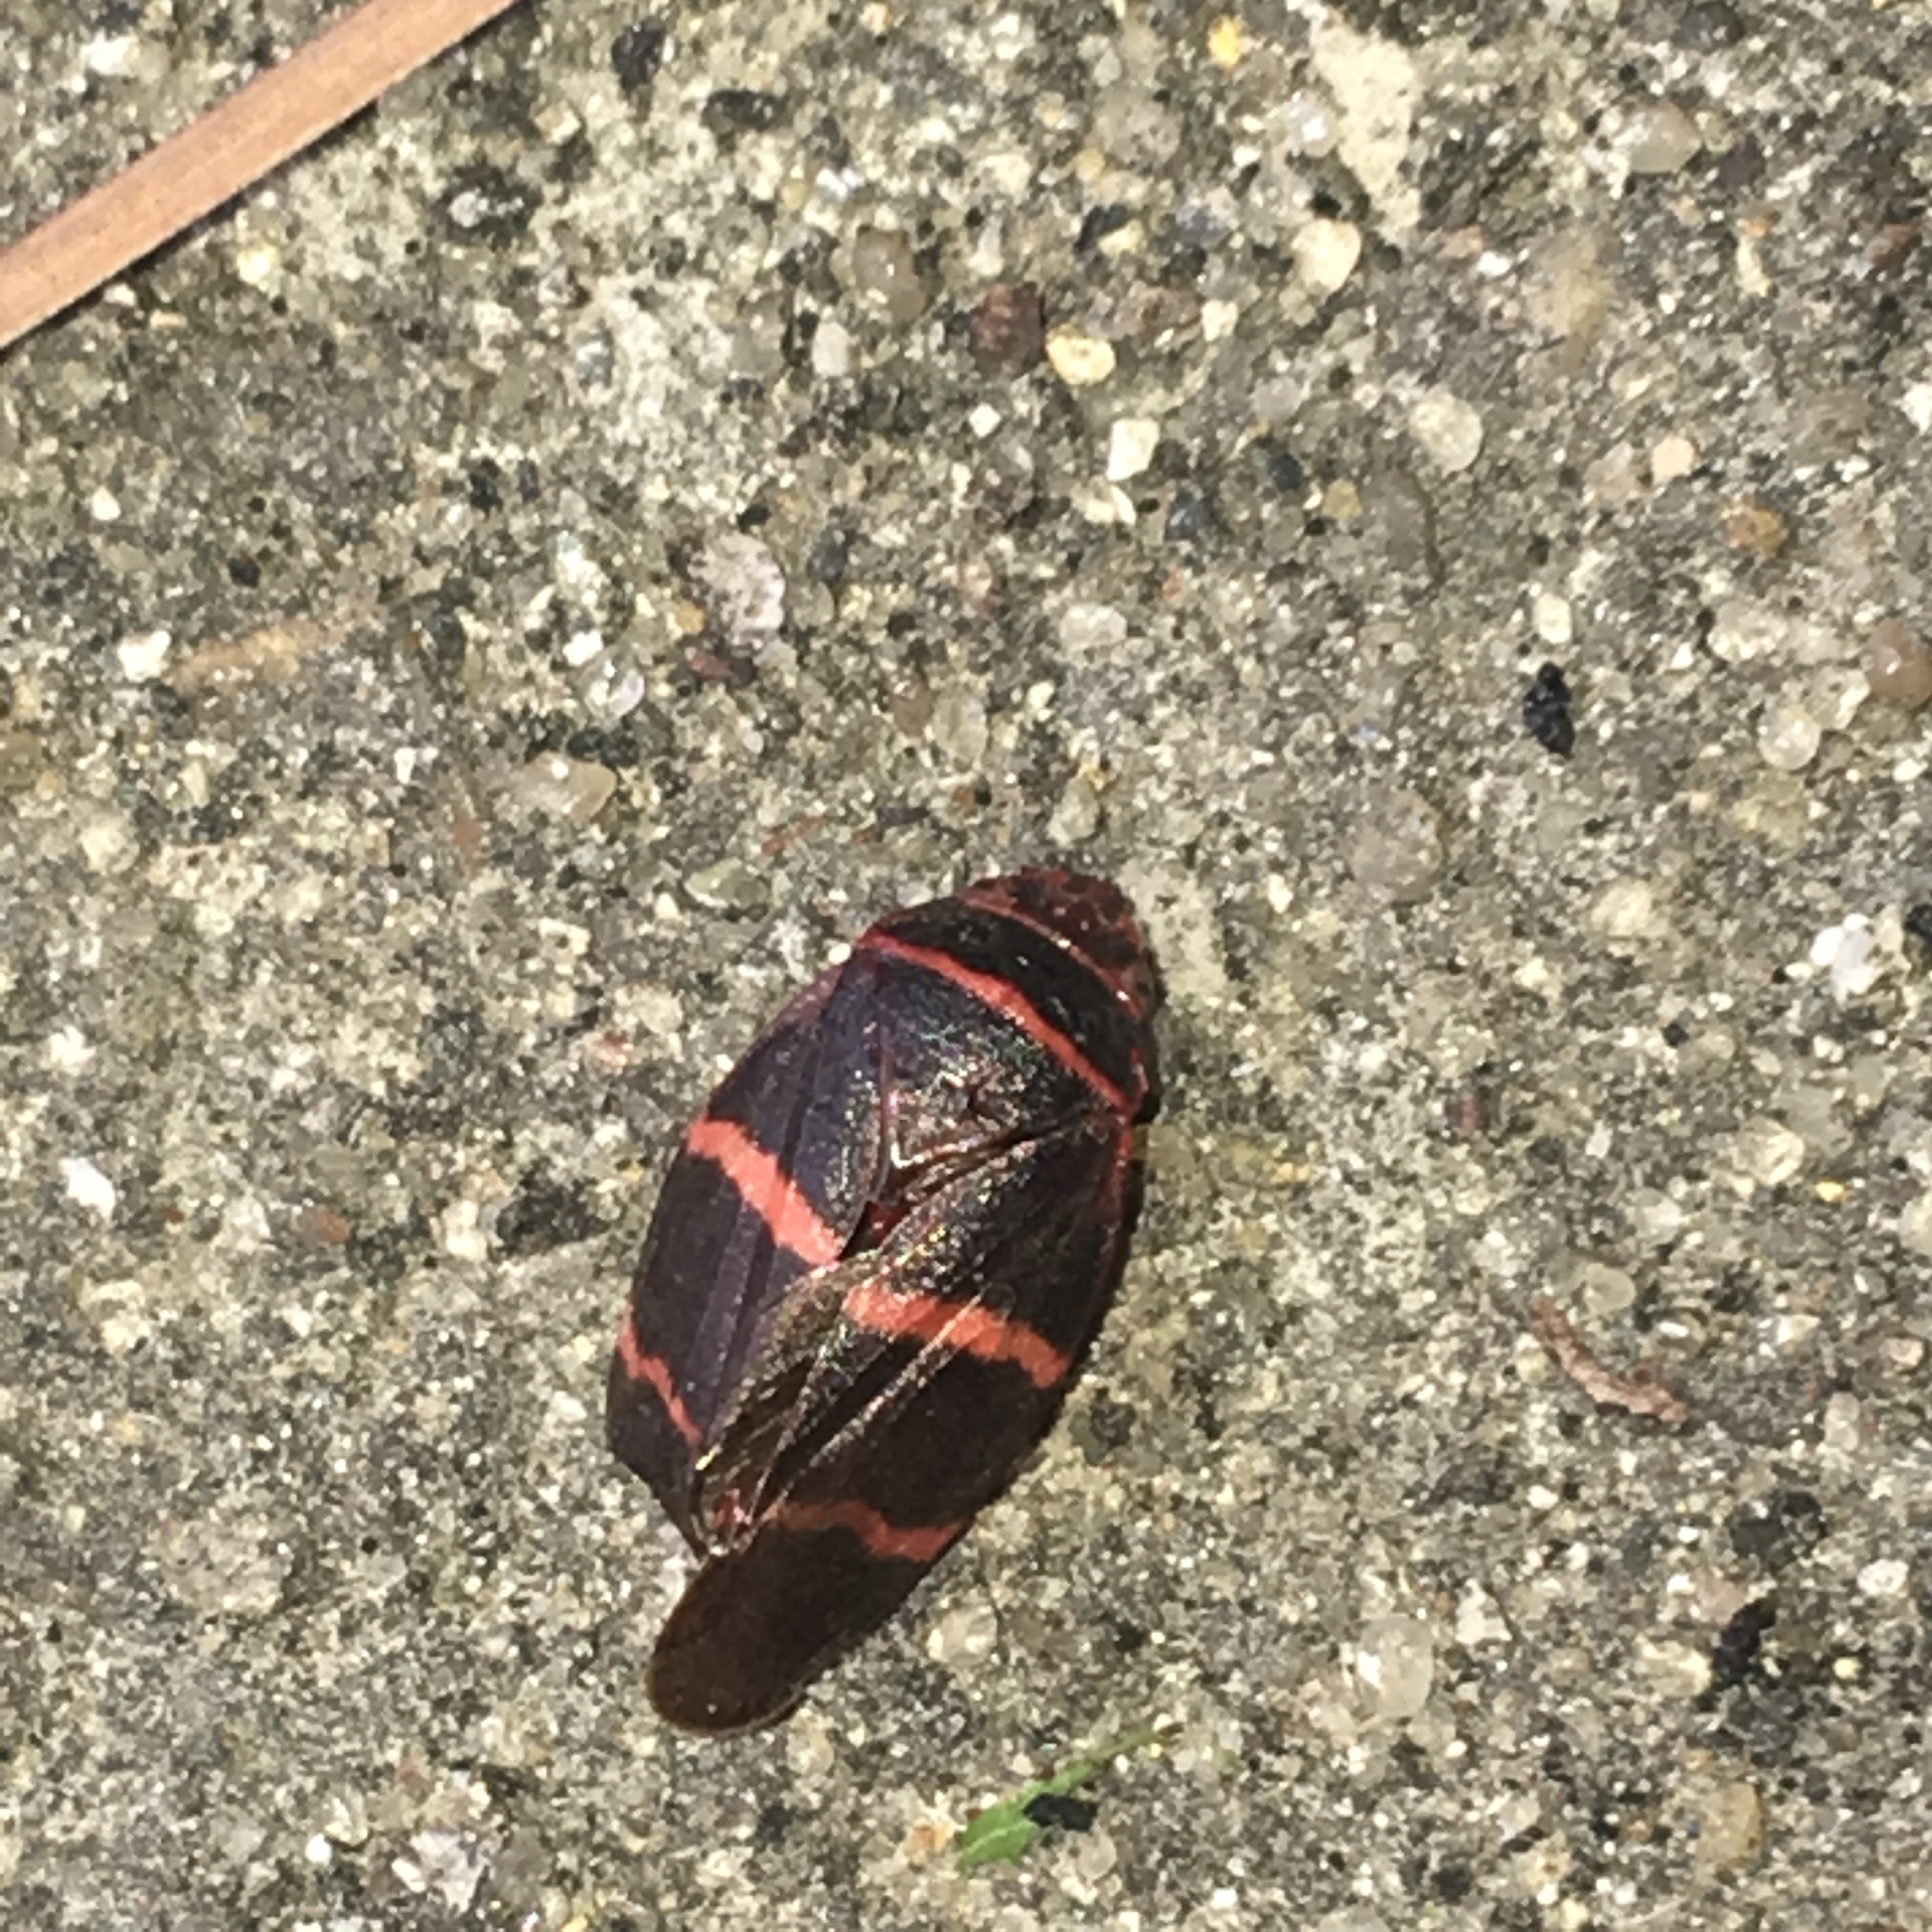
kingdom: Animalia
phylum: Arthropoda
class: Insecta
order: Hemiptera
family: Cercopidae
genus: Prosapia
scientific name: Prosapia bicincta
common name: Twolined spittlebug
